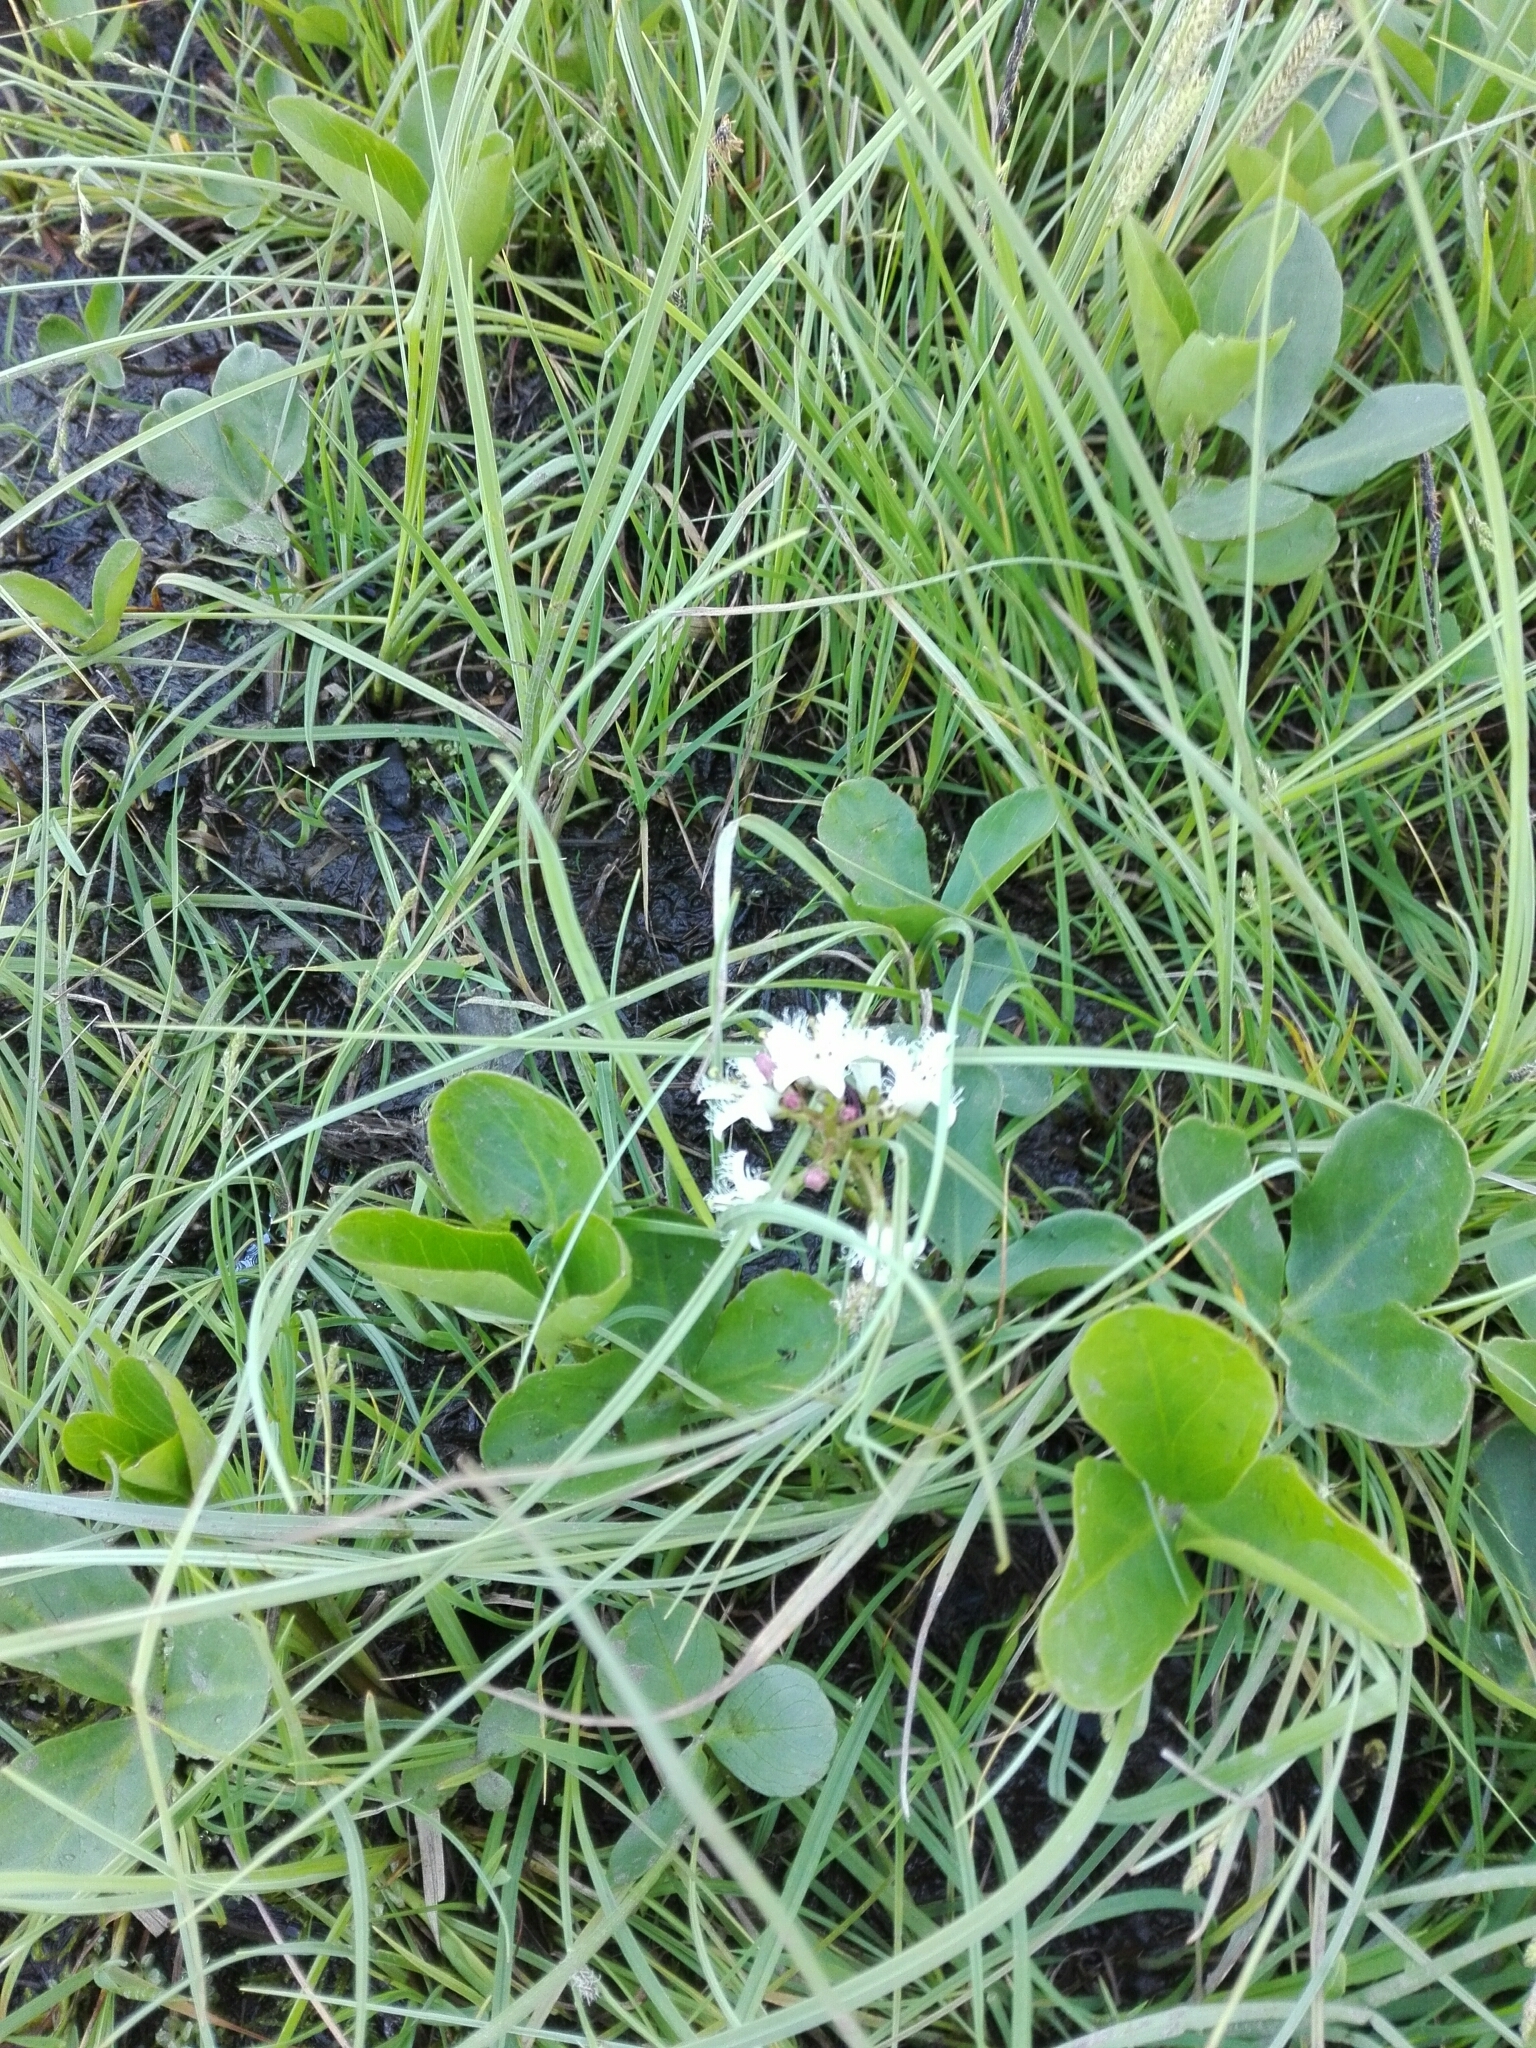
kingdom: Plantae
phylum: Tracheophyta
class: Magnoliopsida
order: Asterales
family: Menyanthaceae
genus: Menyanthes
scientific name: Menyanthes trifoliata
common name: Bogbean
